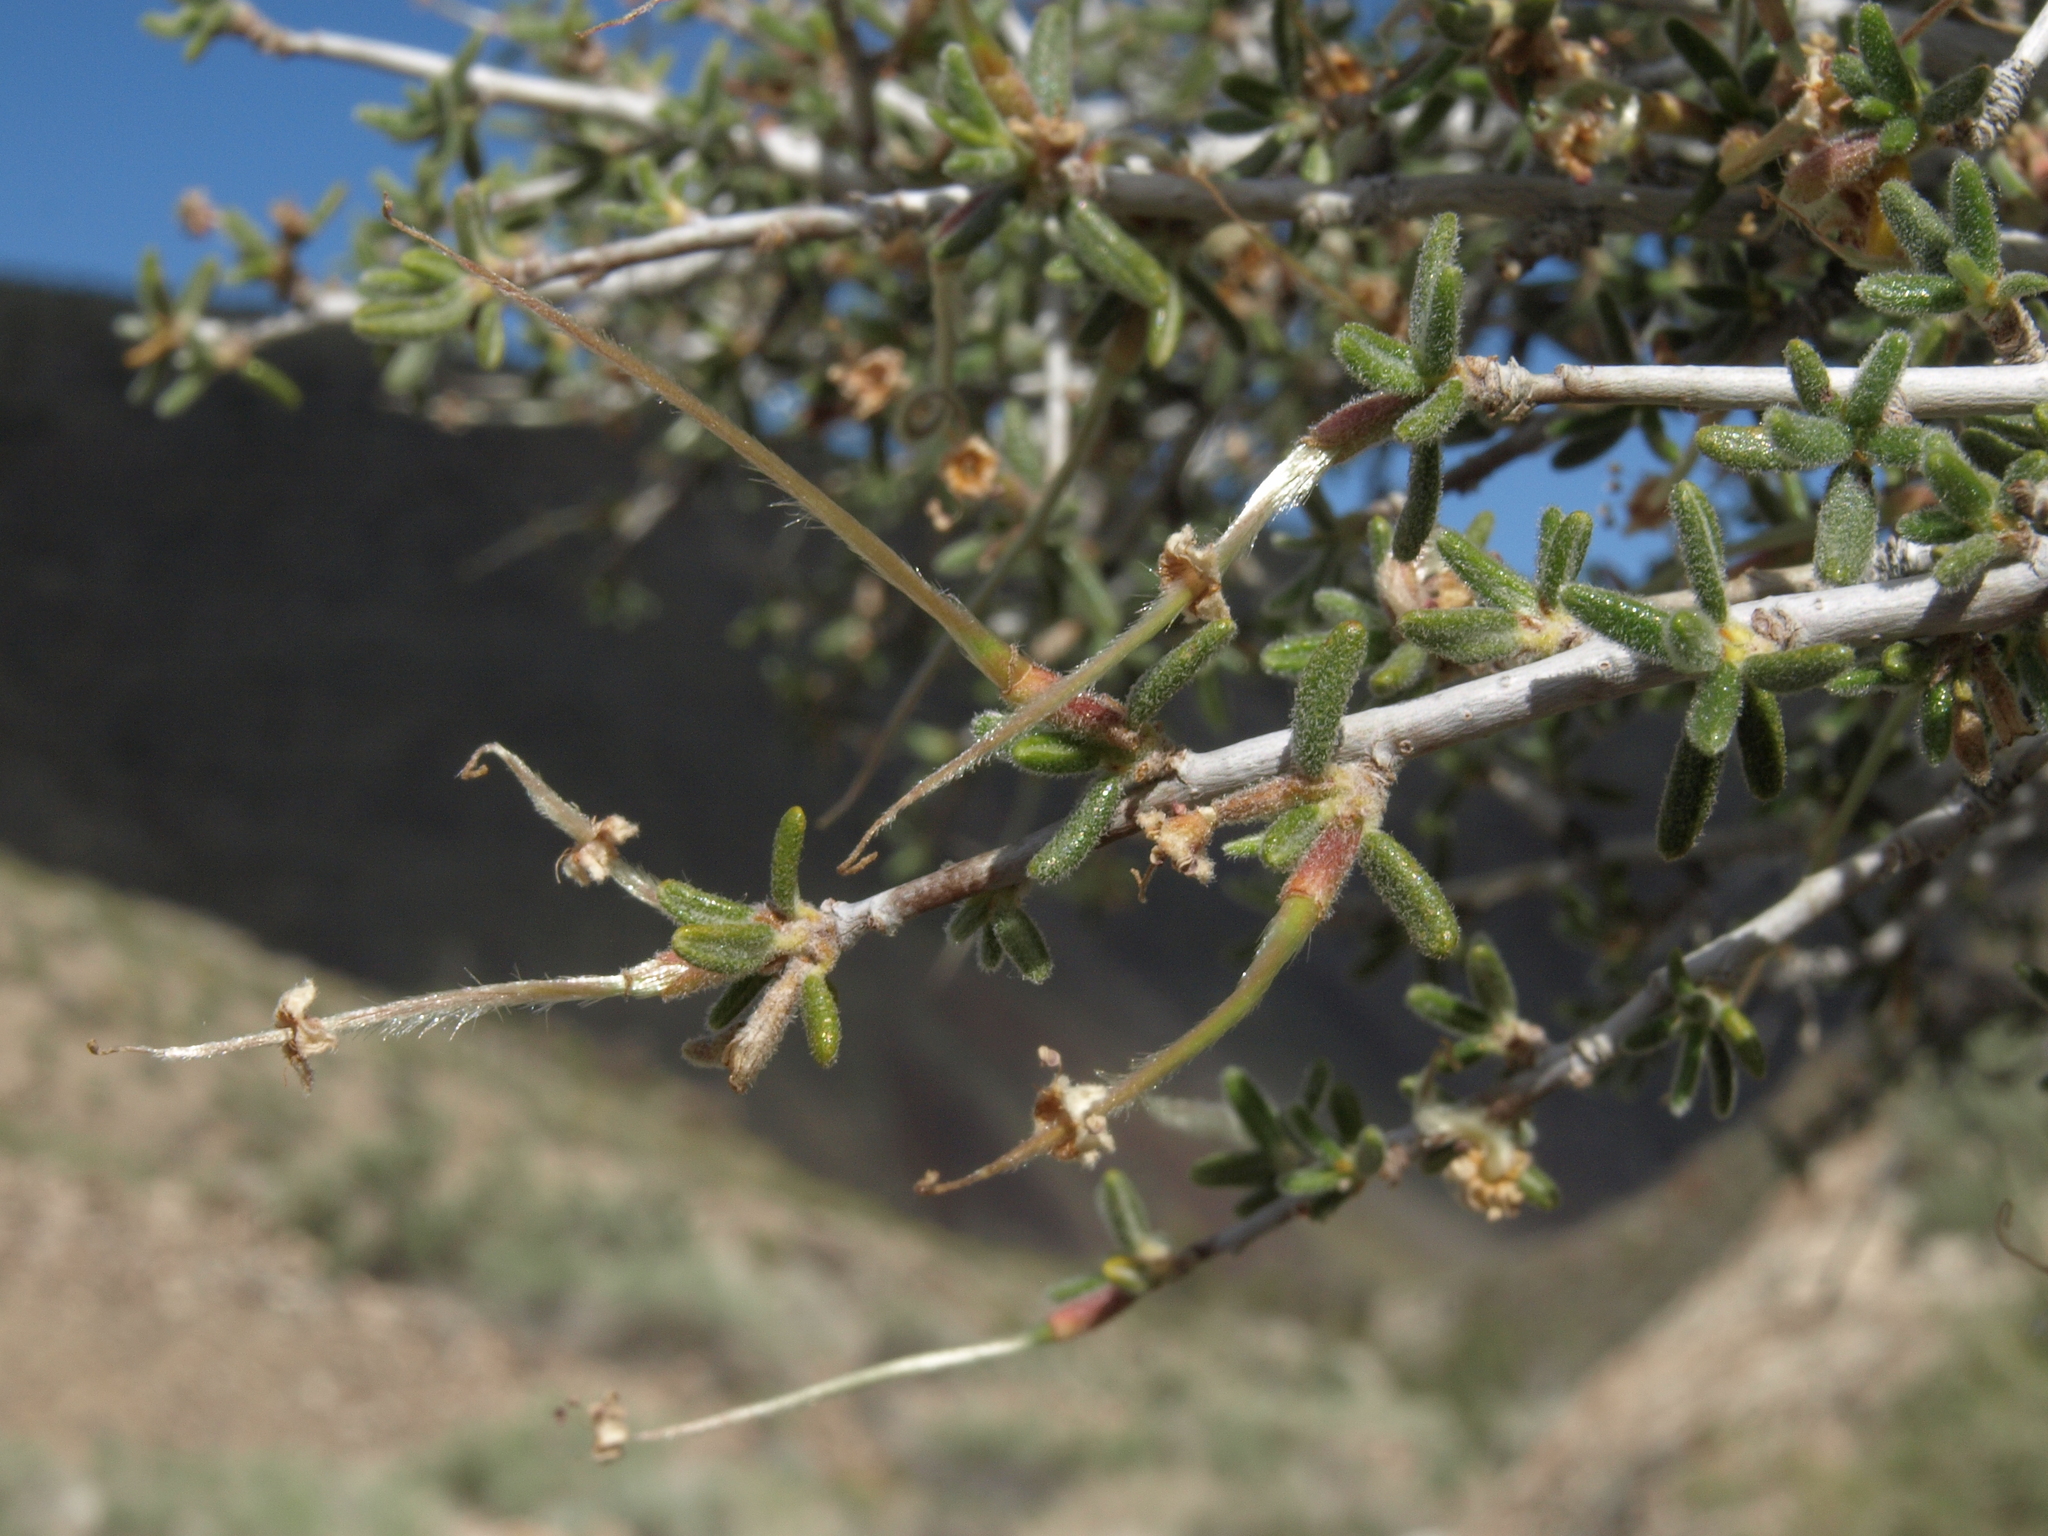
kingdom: Plantae
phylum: Tracheophyta
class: Magnoliopsida
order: Rosales
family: Rosaceae
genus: Cercocarpus
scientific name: Cercocarpus intricatus
